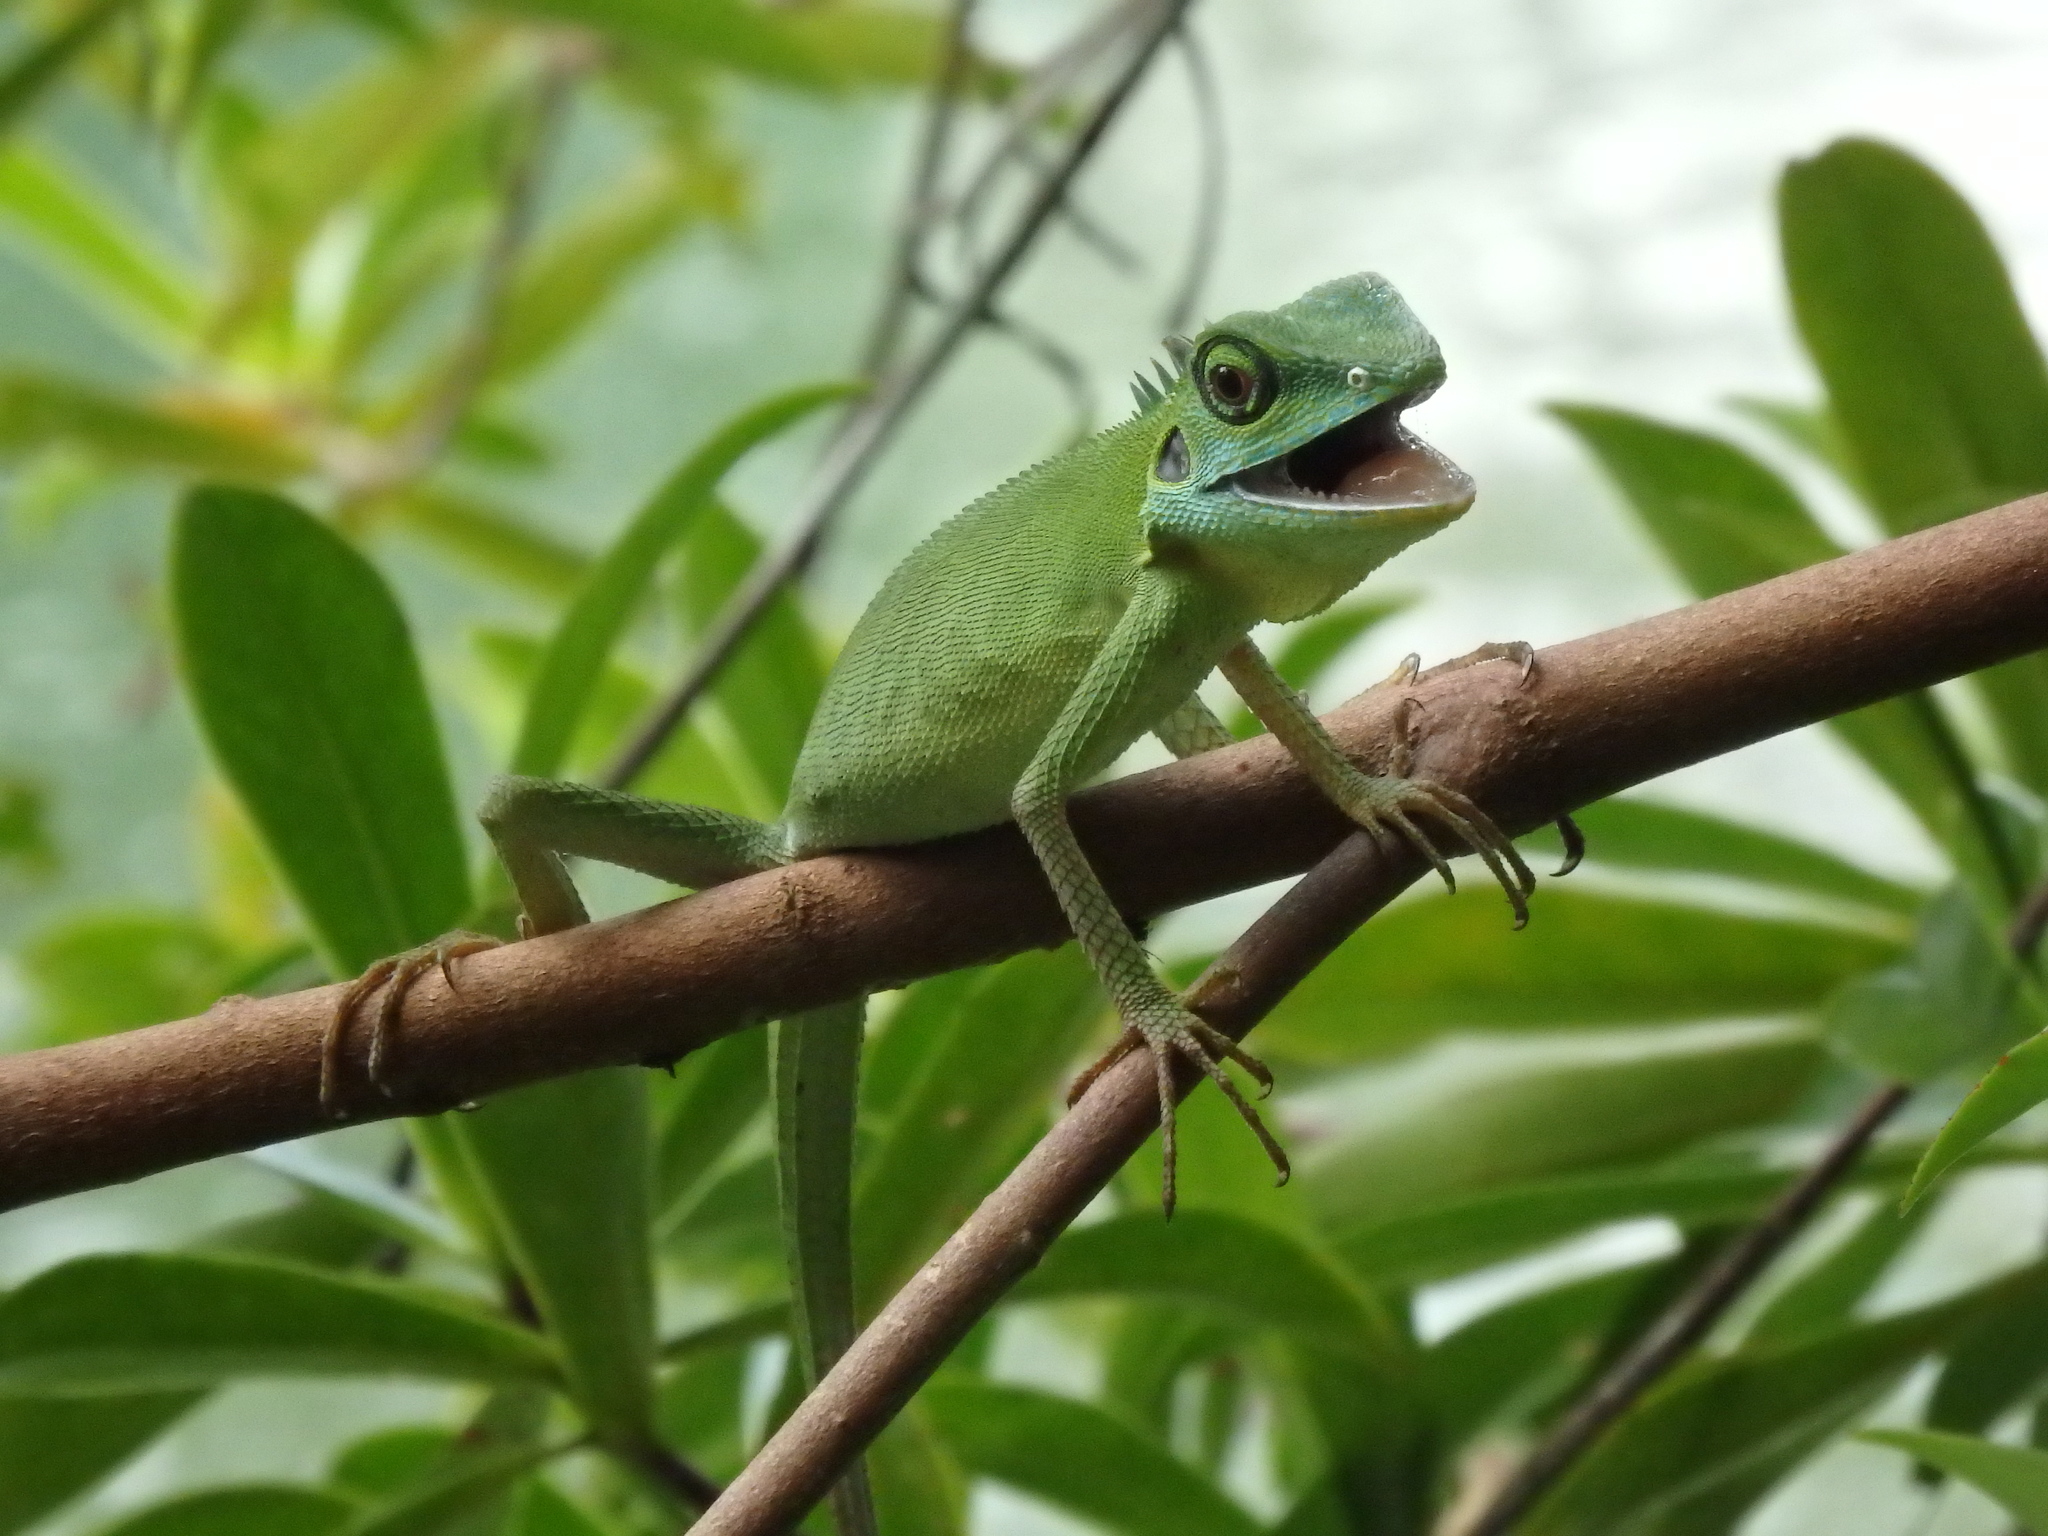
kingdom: Animalia
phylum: Chordata
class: Squamata
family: Agamidae
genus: Bronchocela
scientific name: Bronchocela cristatella
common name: Green crested lizard
